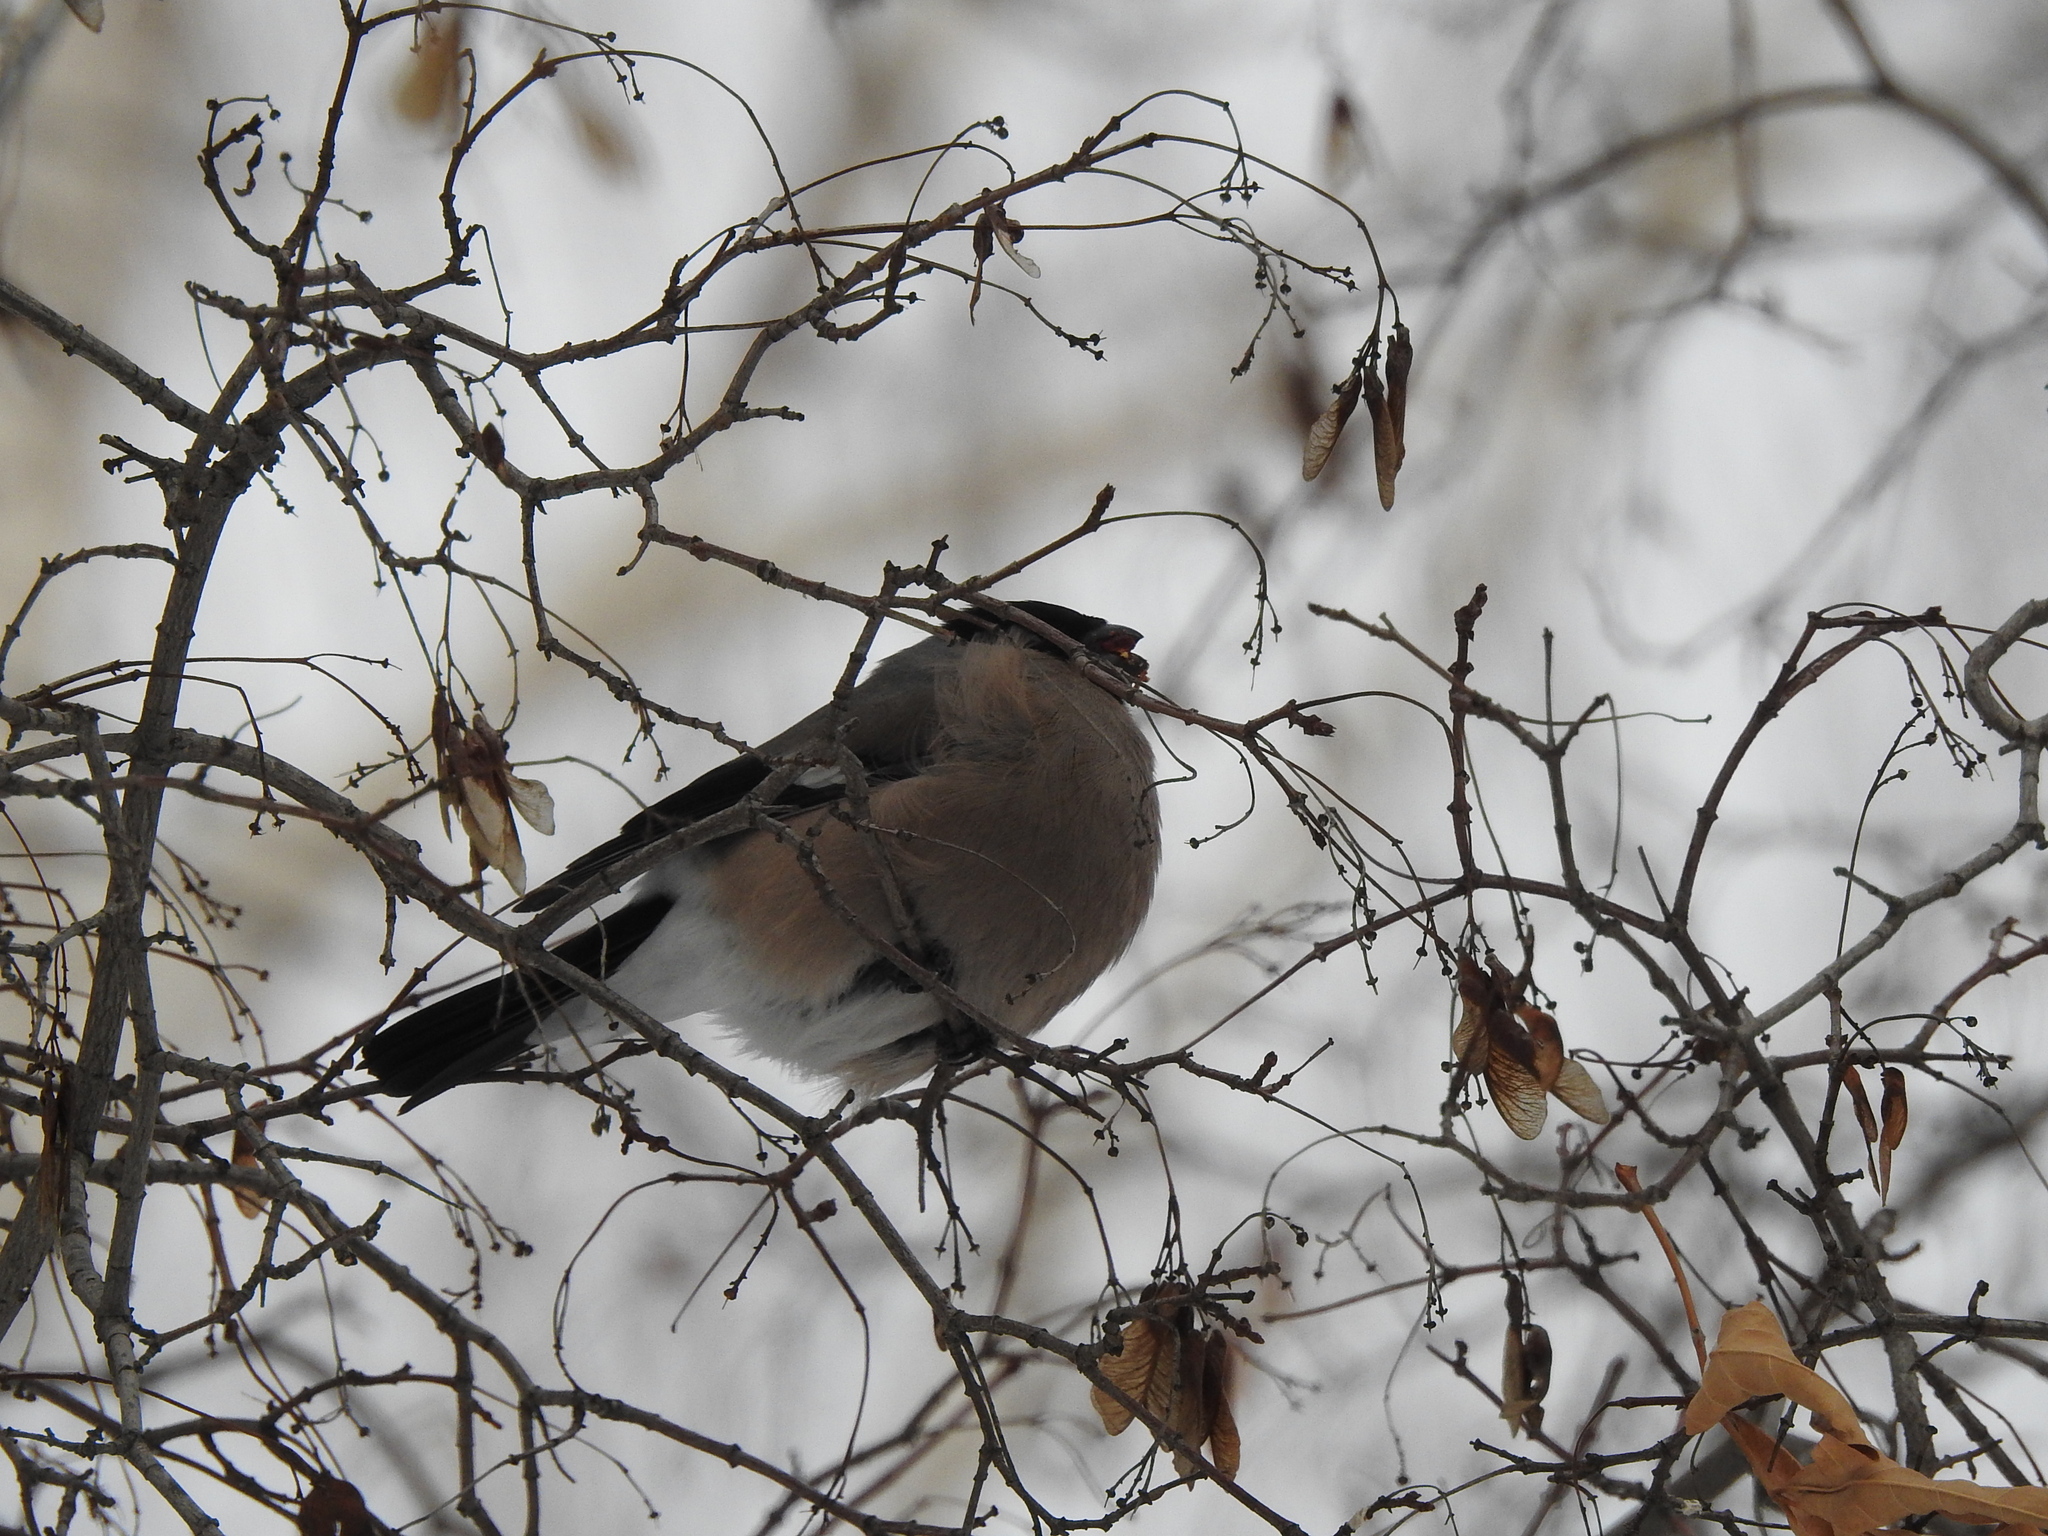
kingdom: Animalia
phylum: Chordata
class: Aves
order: Passeriformes
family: Fringillidae
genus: Pyrrhula
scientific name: Pyrrhula pyrrhula
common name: Eurasian bullfinch
